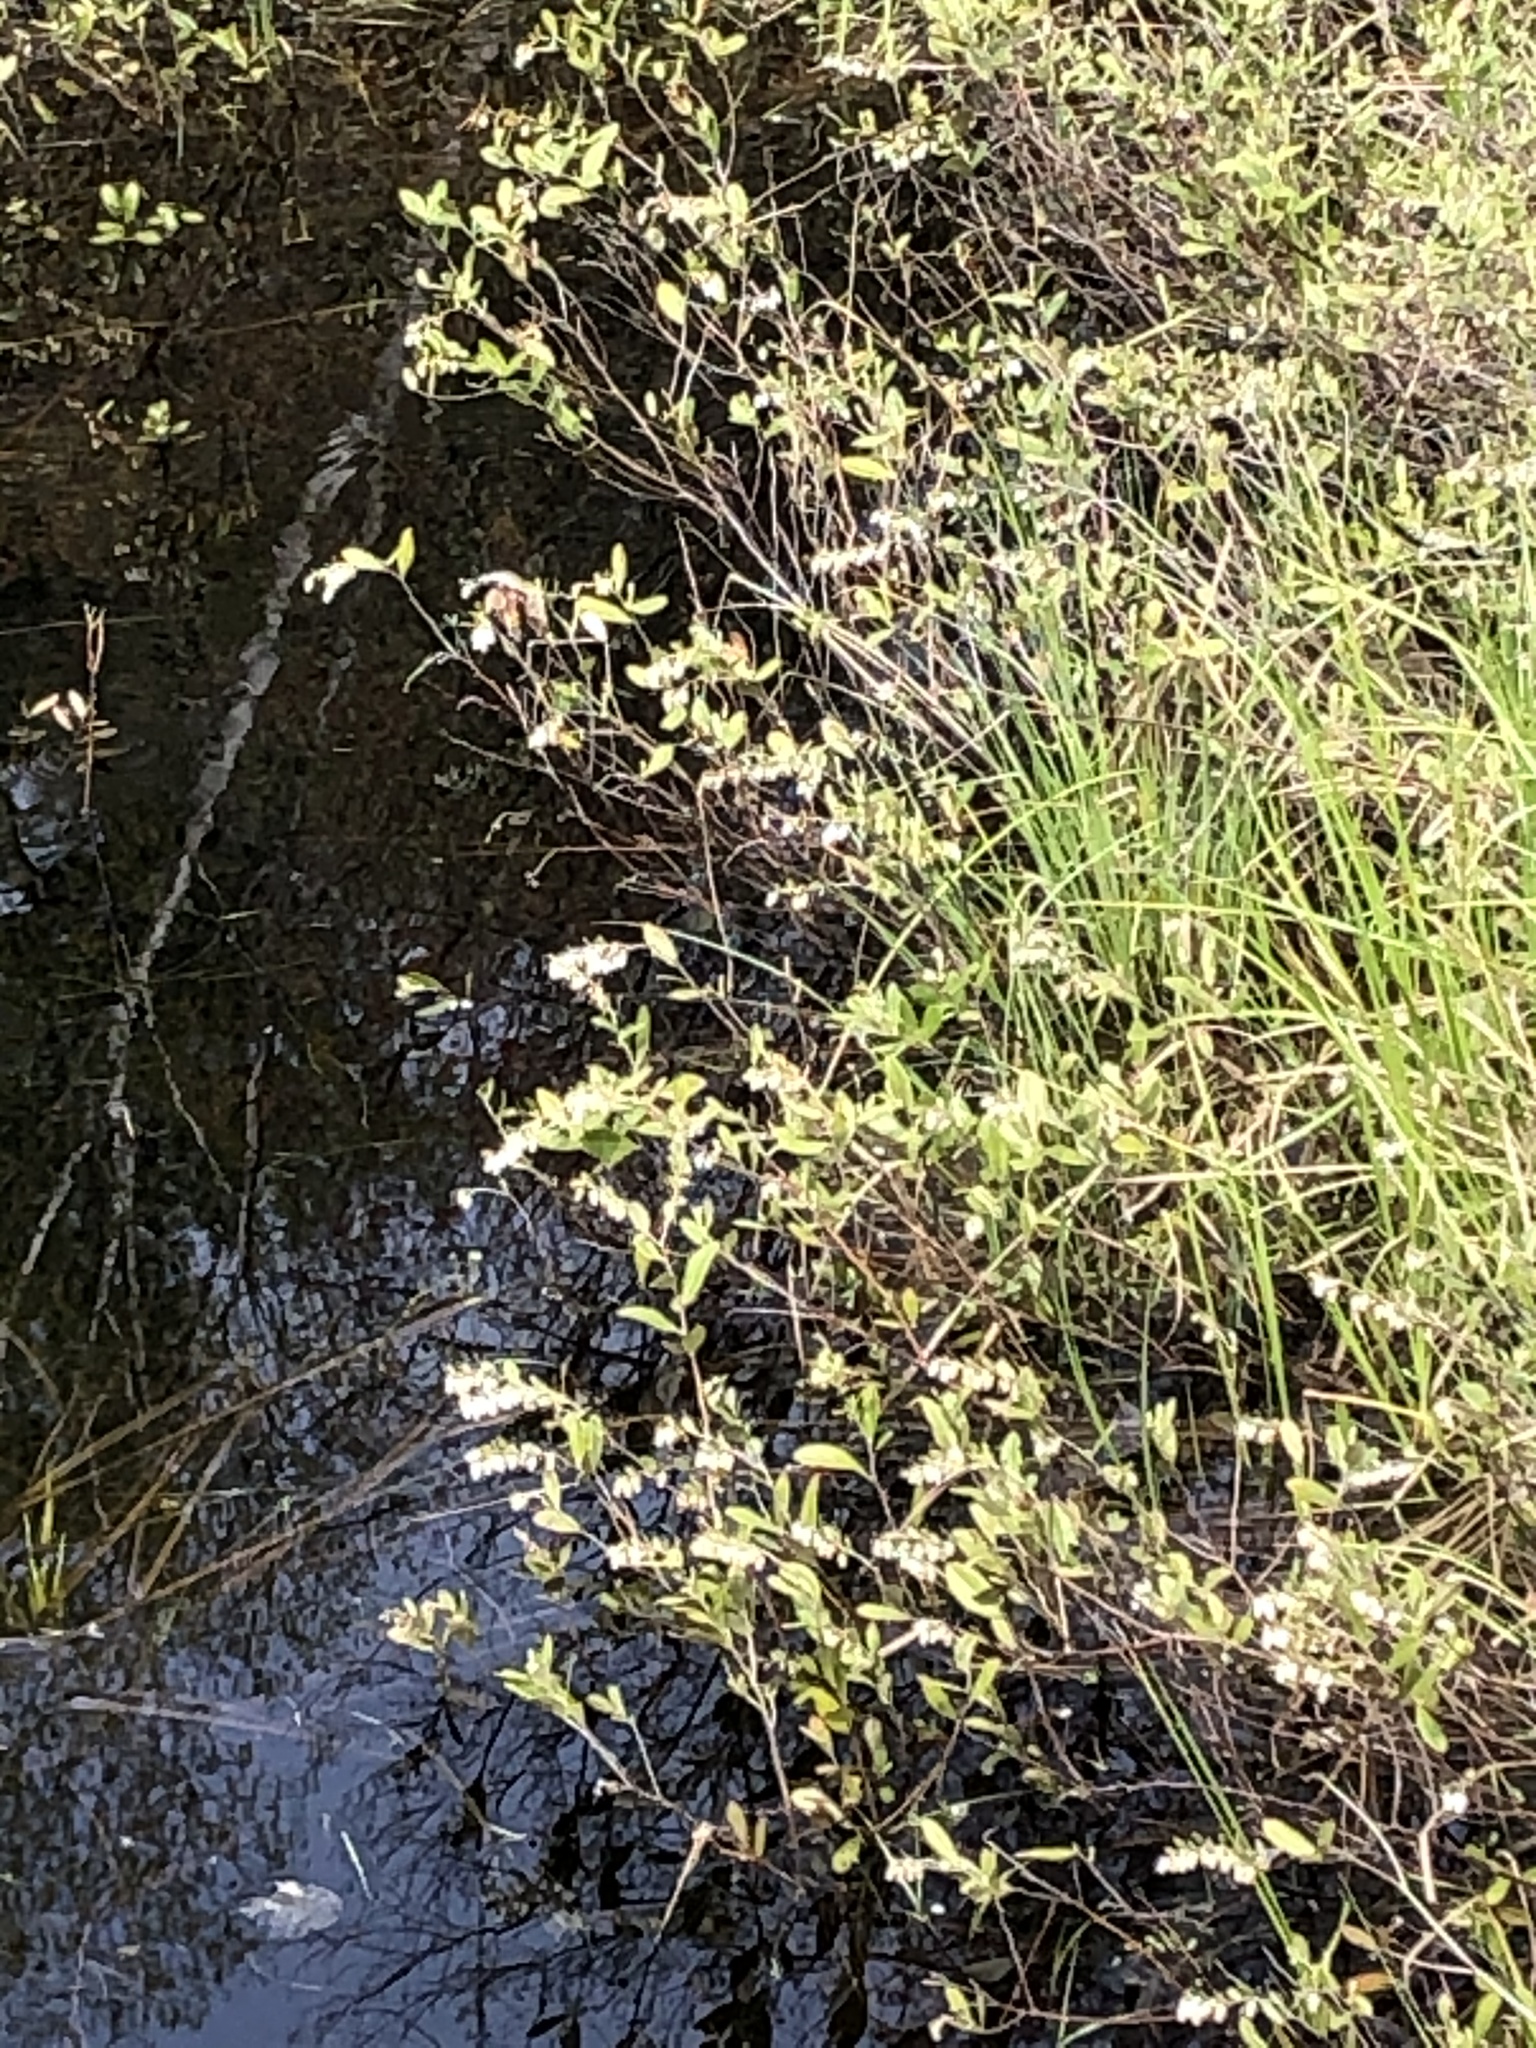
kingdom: Plantae
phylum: Tracheophyta
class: Magnoliopsida
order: Ericales
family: Ericaceae
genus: Chamaedaphne
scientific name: Chamaedaphne calyculata
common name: Leatherleaf
